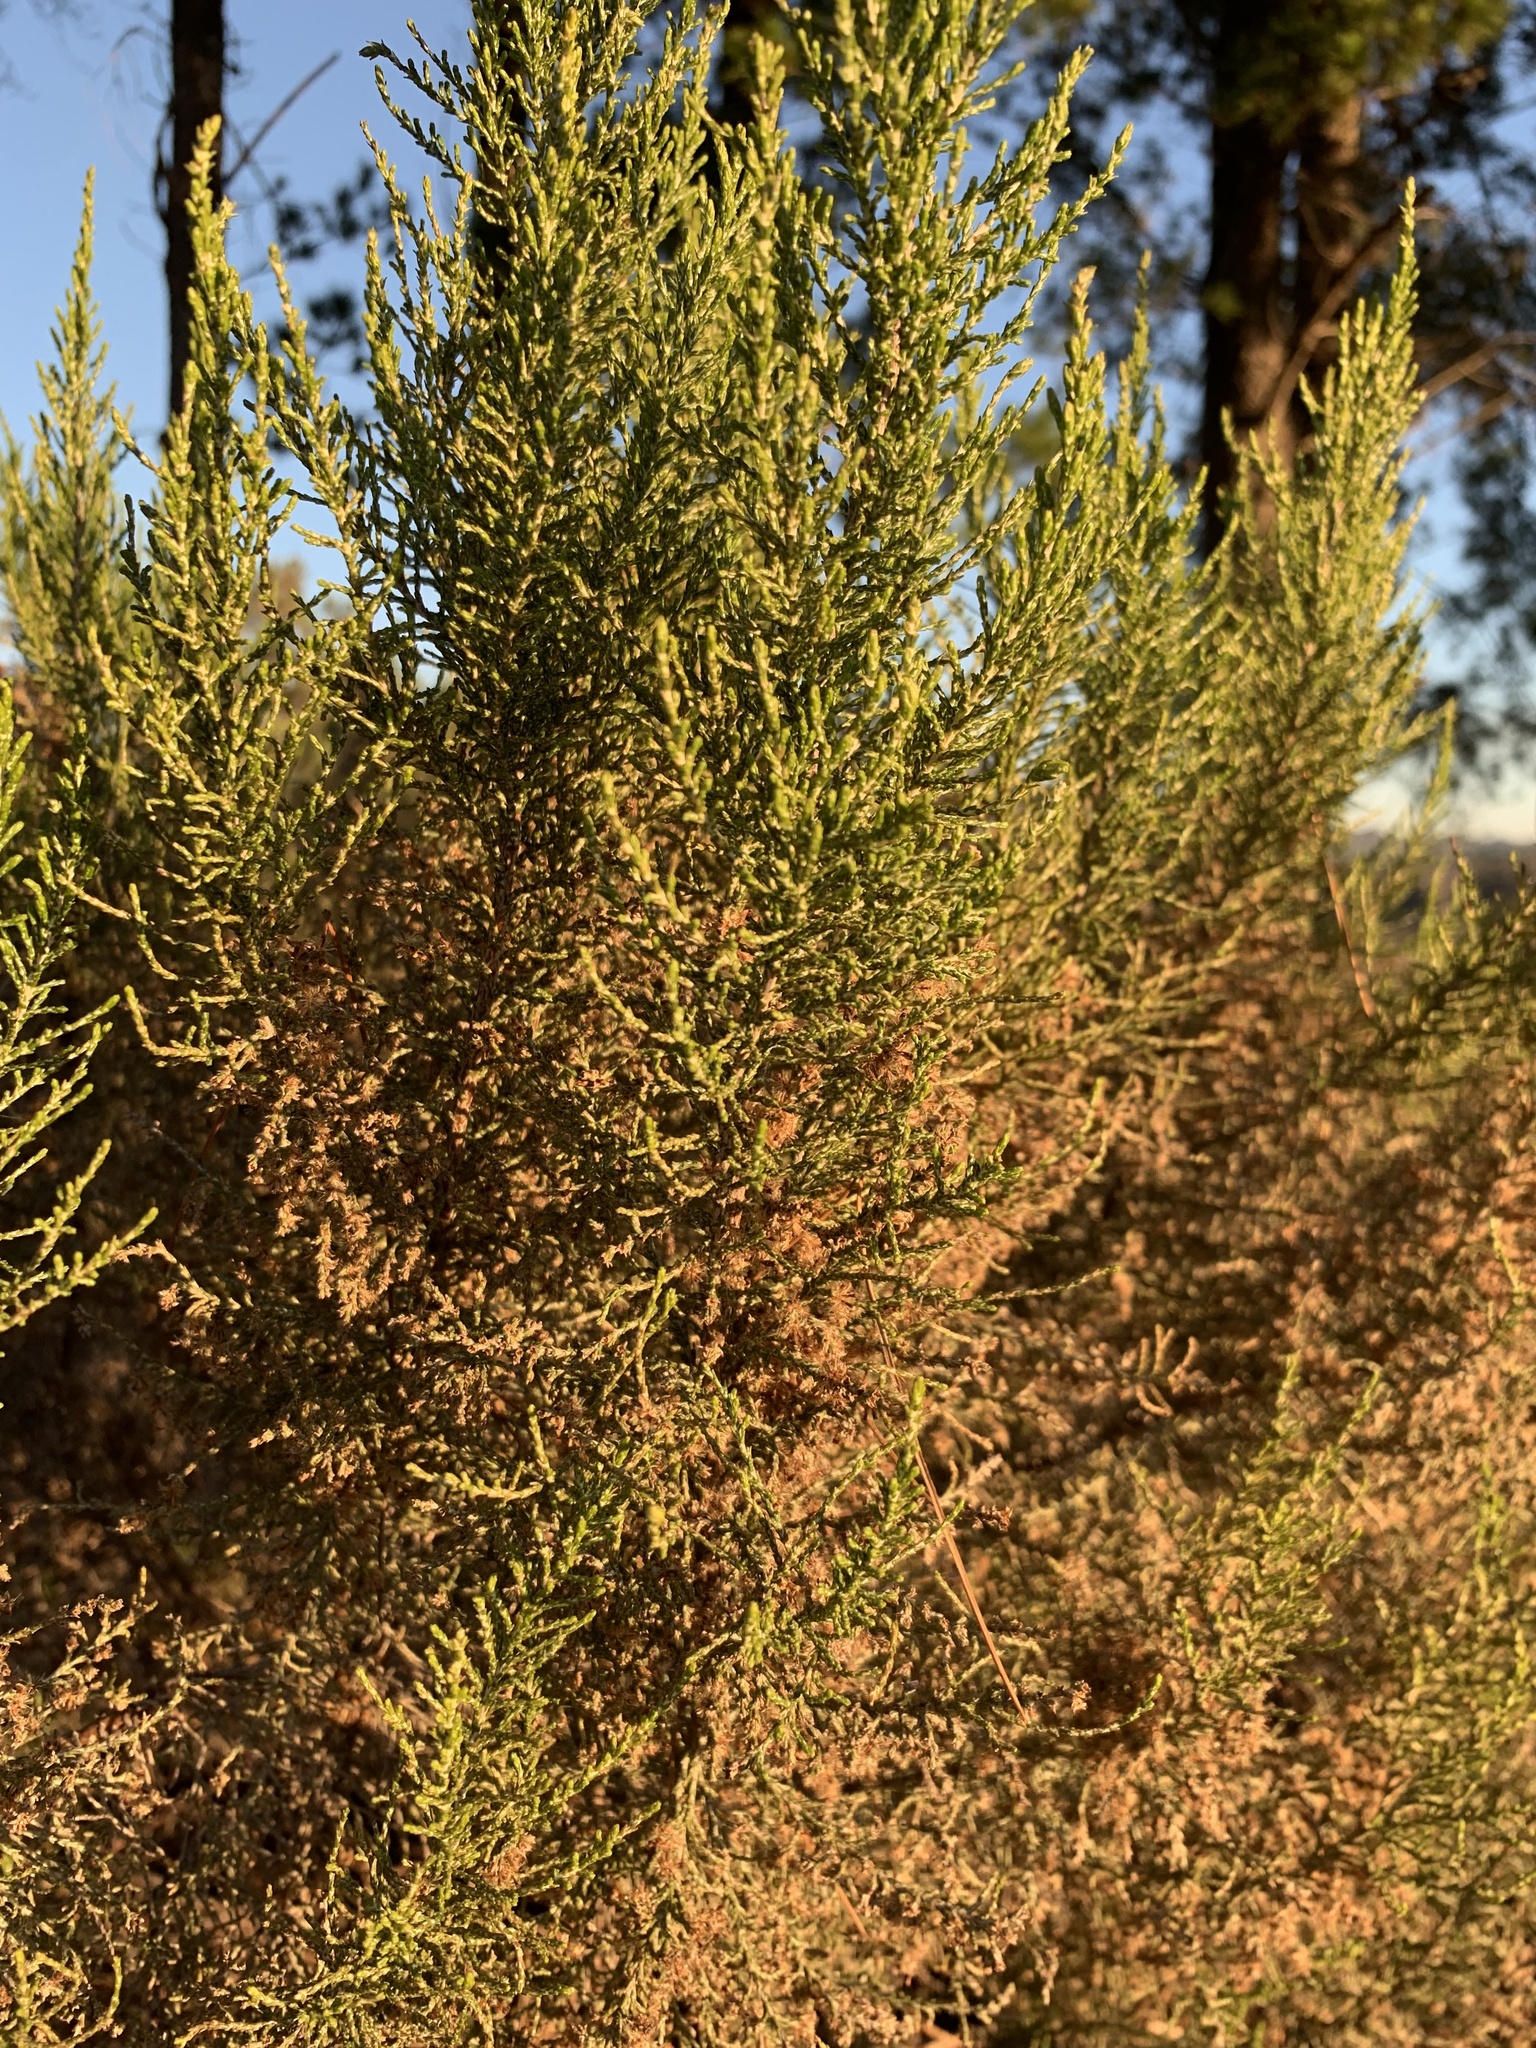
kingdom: Plantae
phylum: Tracheophyta
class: Magnoliopsida
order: Asterales
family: Asteraceae
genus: Dicerothamnus
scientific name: Dicerothamnus rhinocerotis
